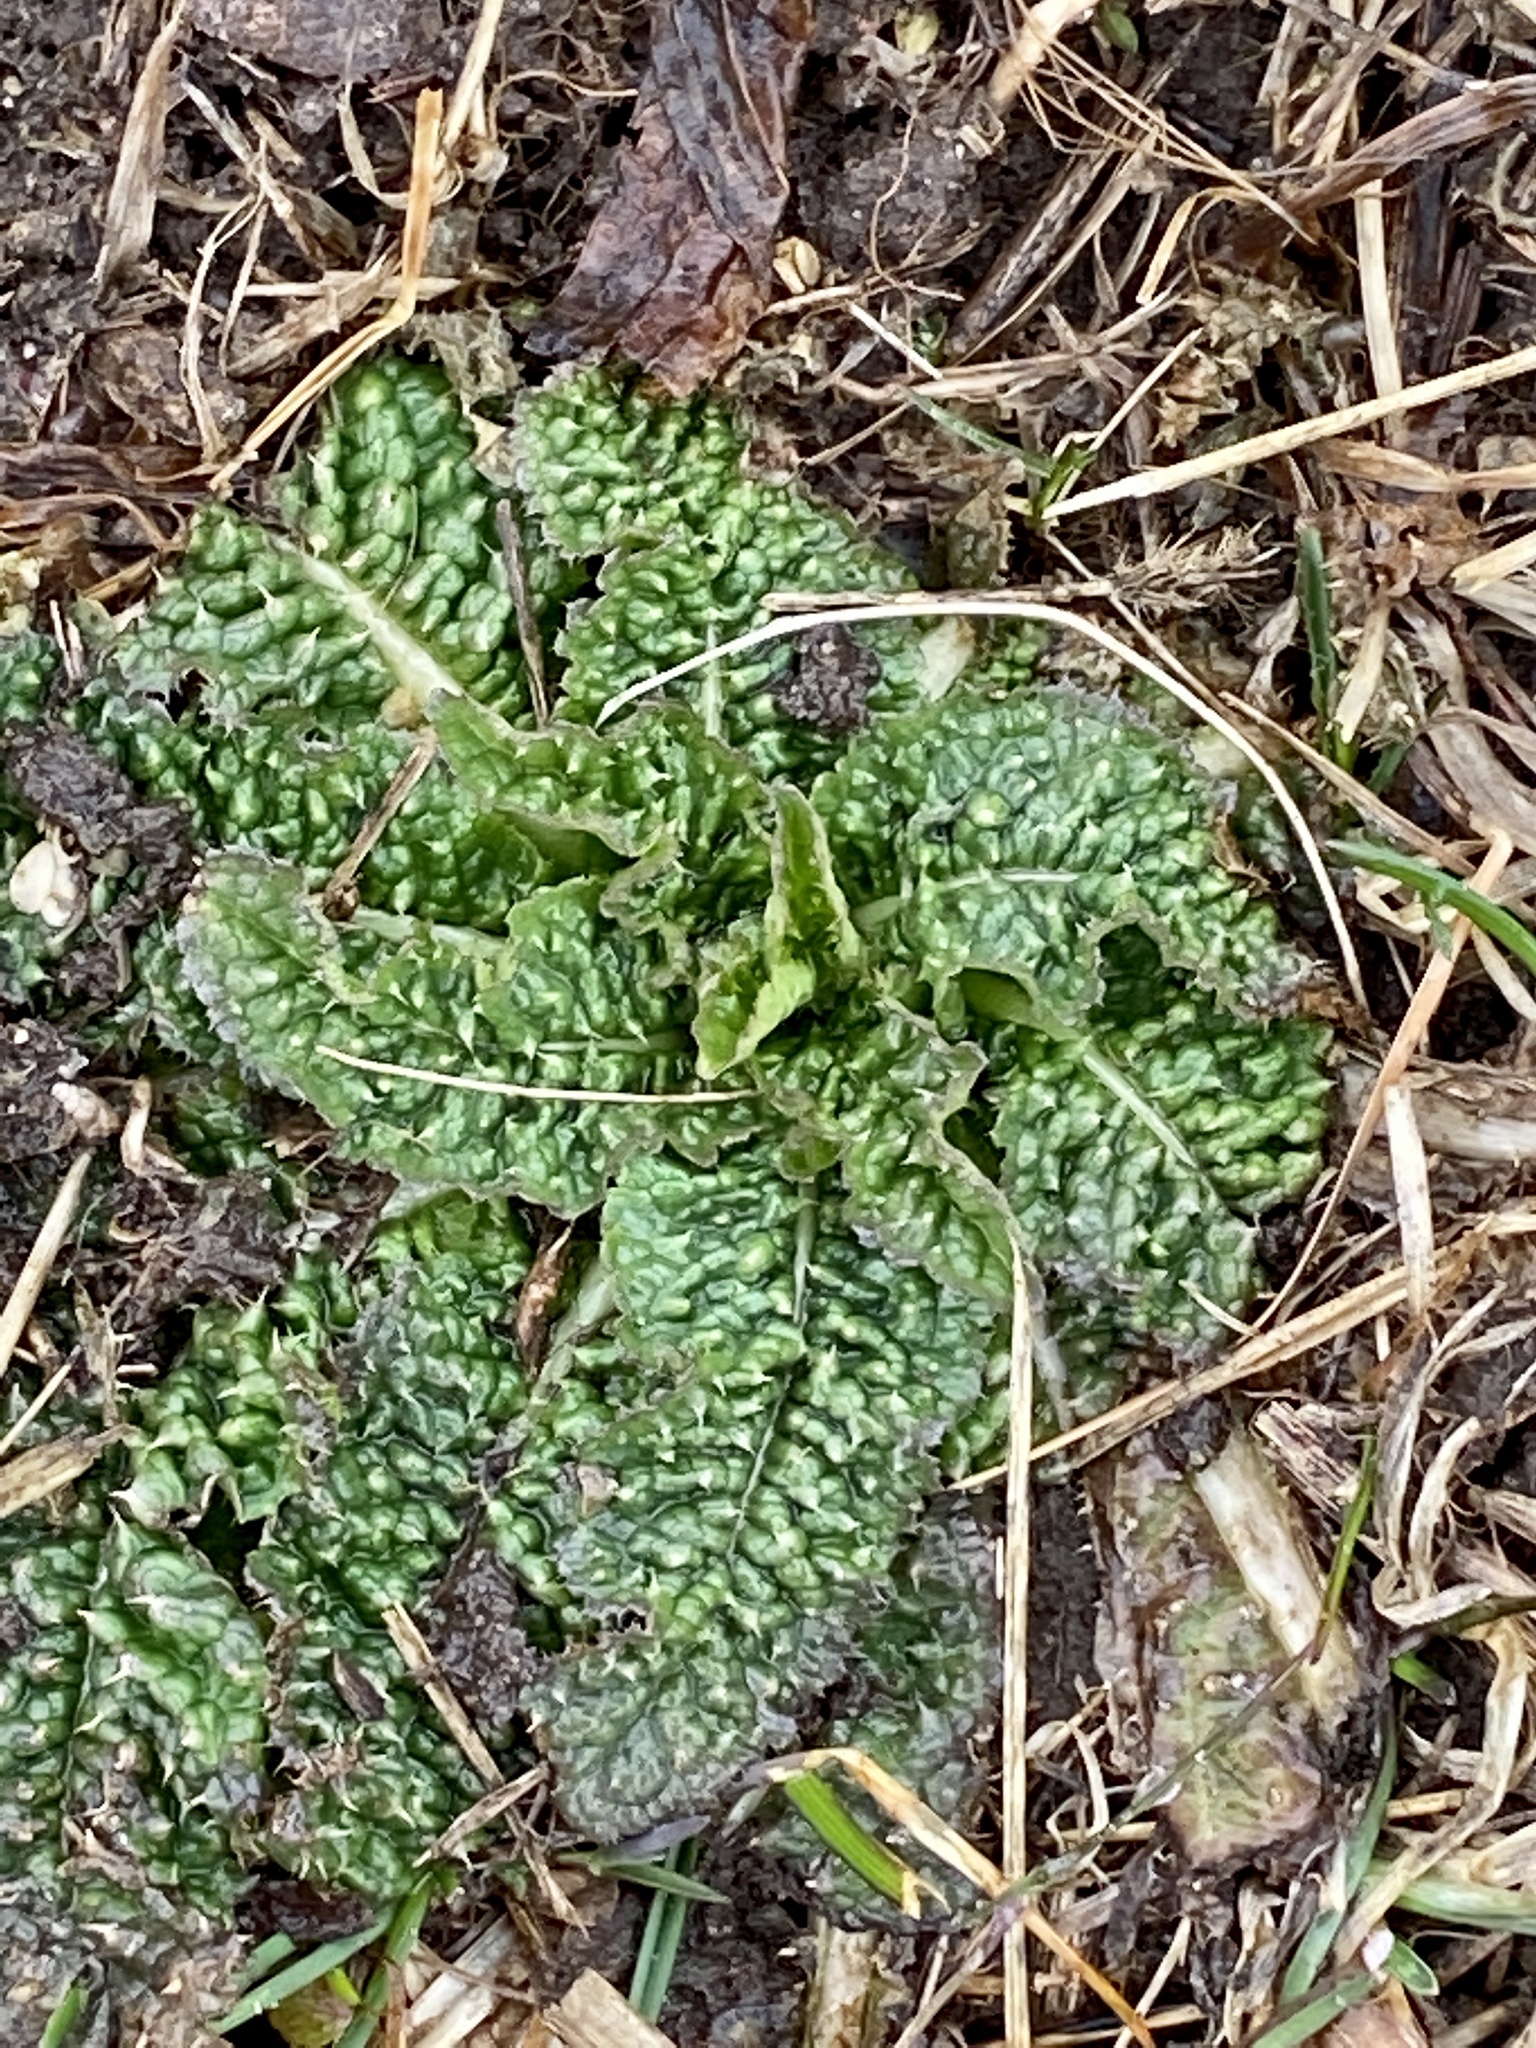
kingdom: Plantae
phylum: Tracheophyta
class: Magnoliopsida
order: Dipsacales
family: Caprifoliaceae
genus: Dipsacus
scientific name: Dipsacus fullonum
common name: Teasel
